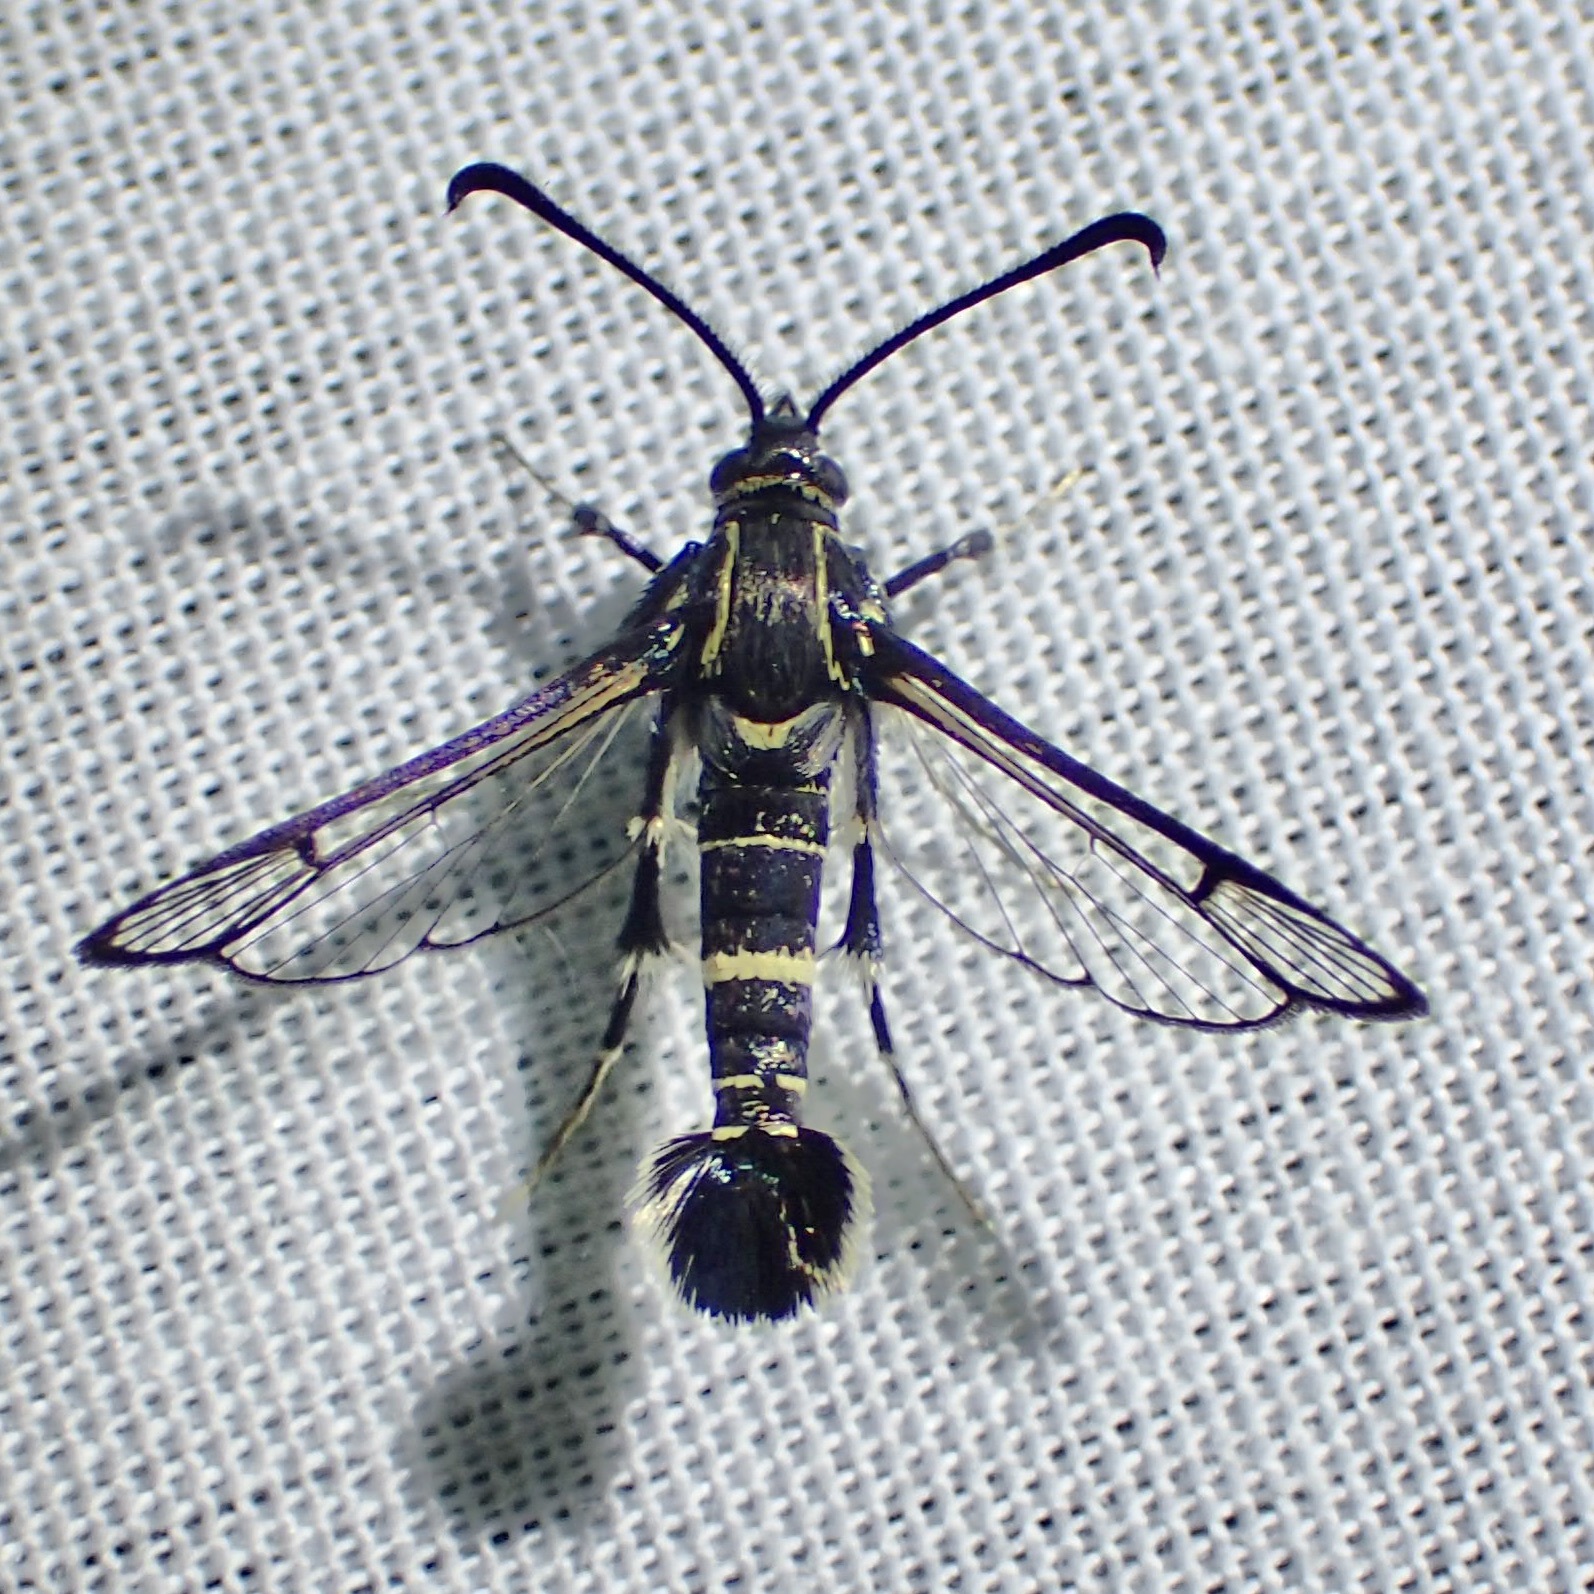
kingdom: Animalia
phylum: Arthropoda
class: Insecta
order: Lepidoptera
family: Sesiidae
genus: Carmenta
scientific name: Carmenta tecta
